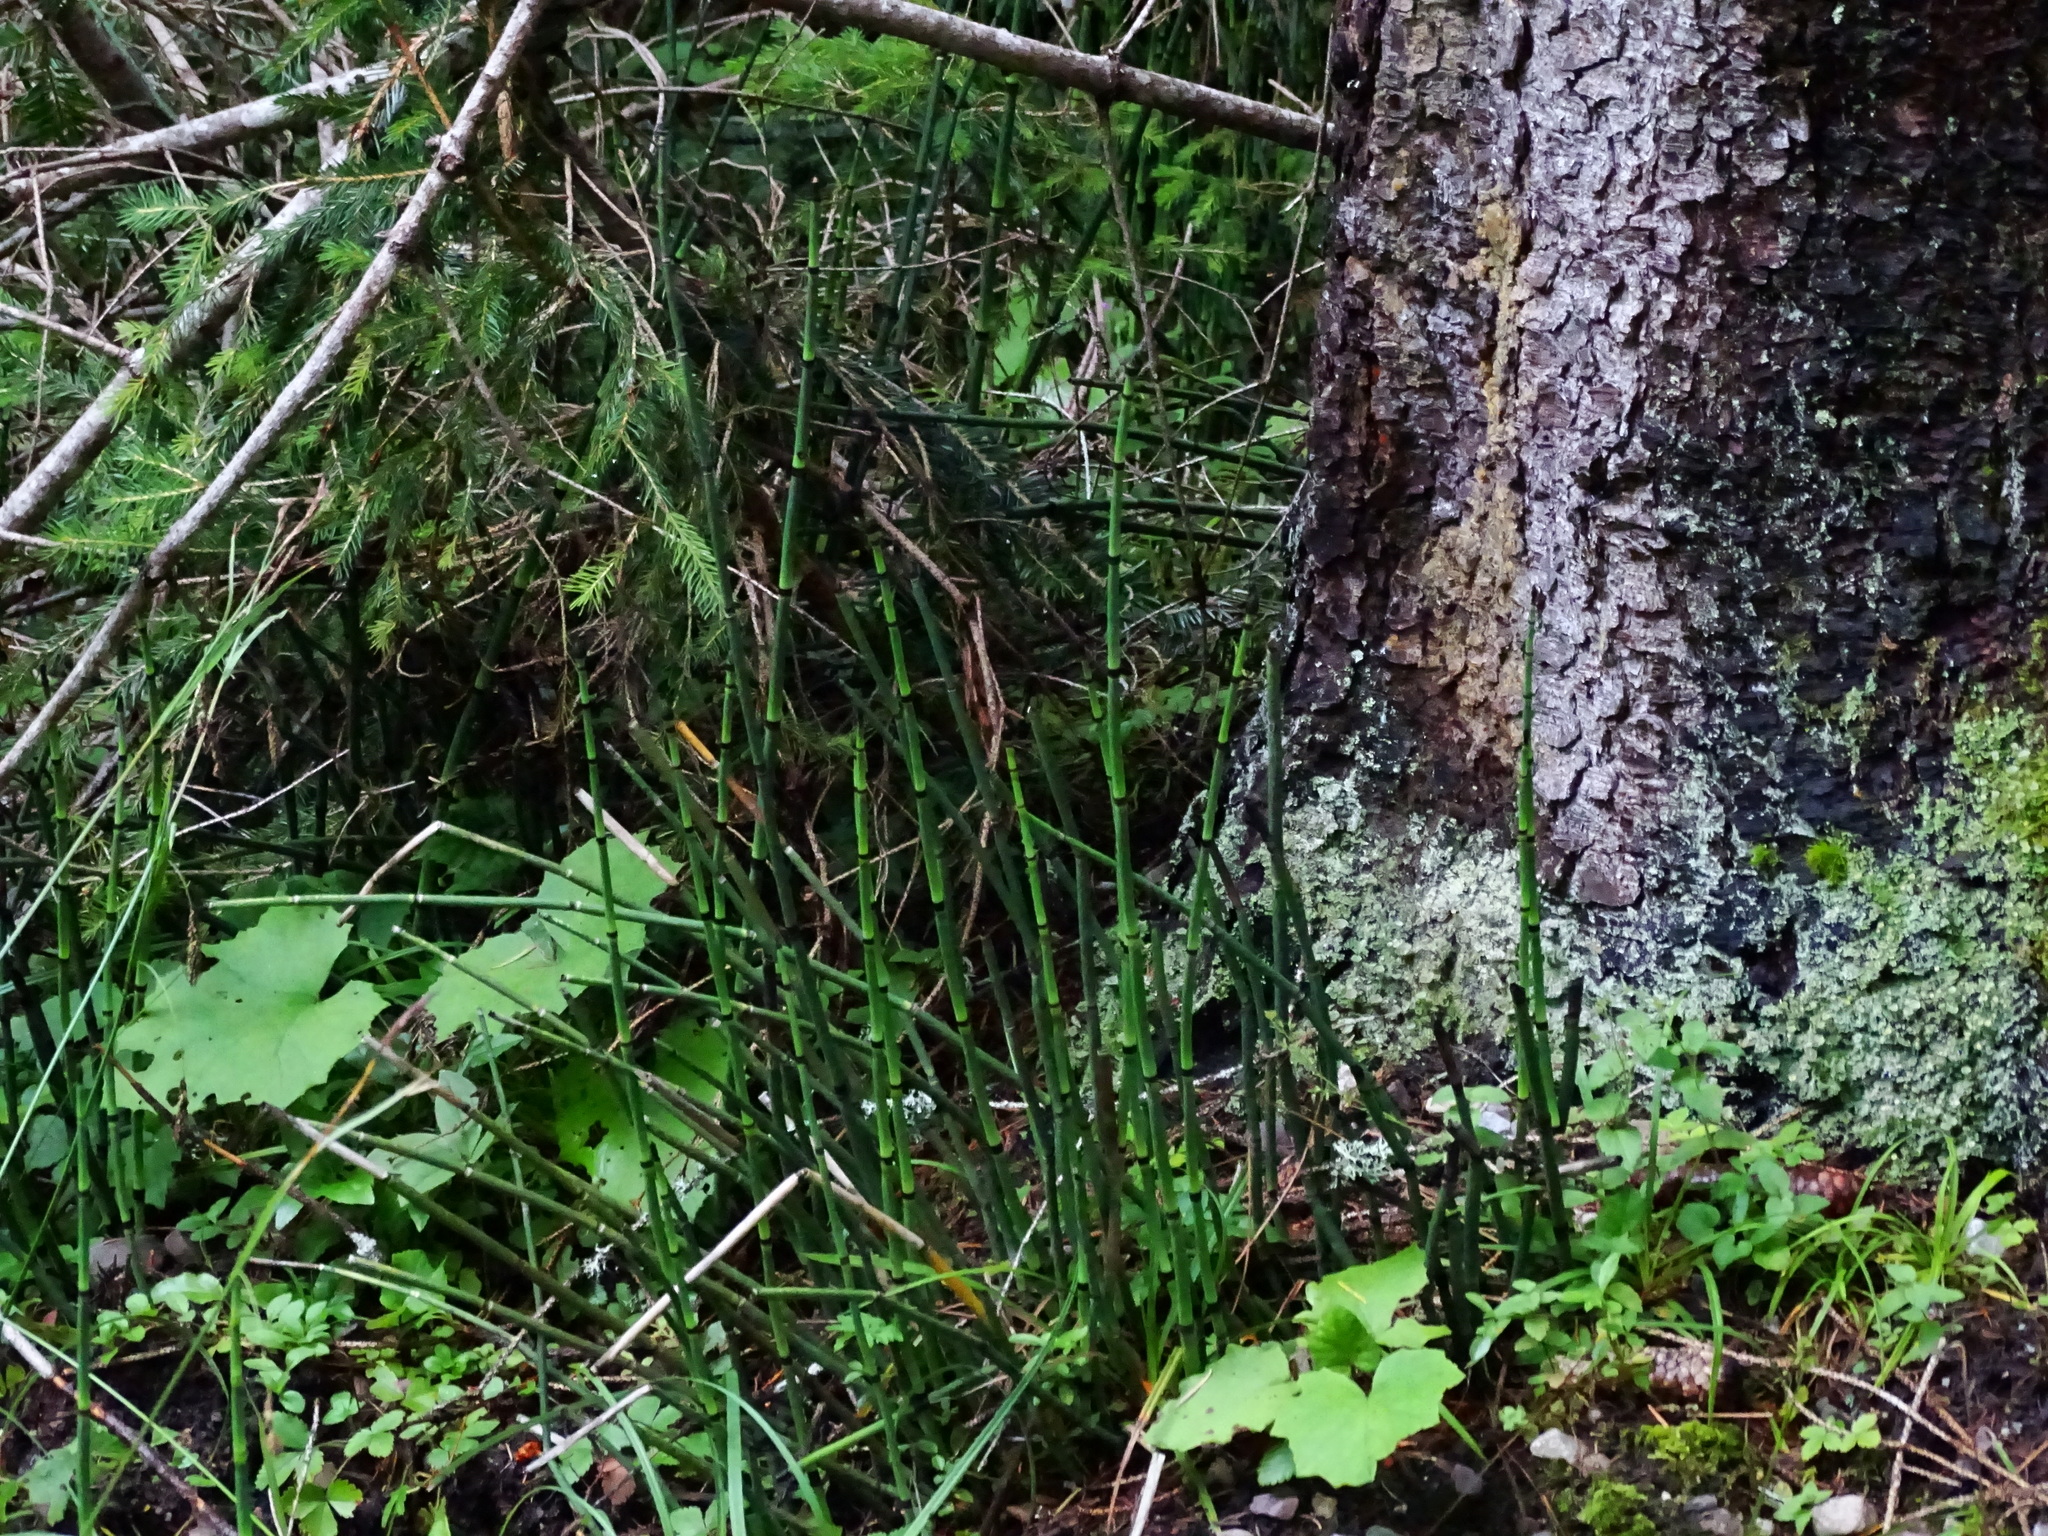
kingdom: Plantae
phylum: Tracheophyta
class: Polypodiopsida
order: Equisetales
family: Equisetaceae
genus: Equisetum
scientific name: Equisetum hyemale
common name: Rough horsetail
